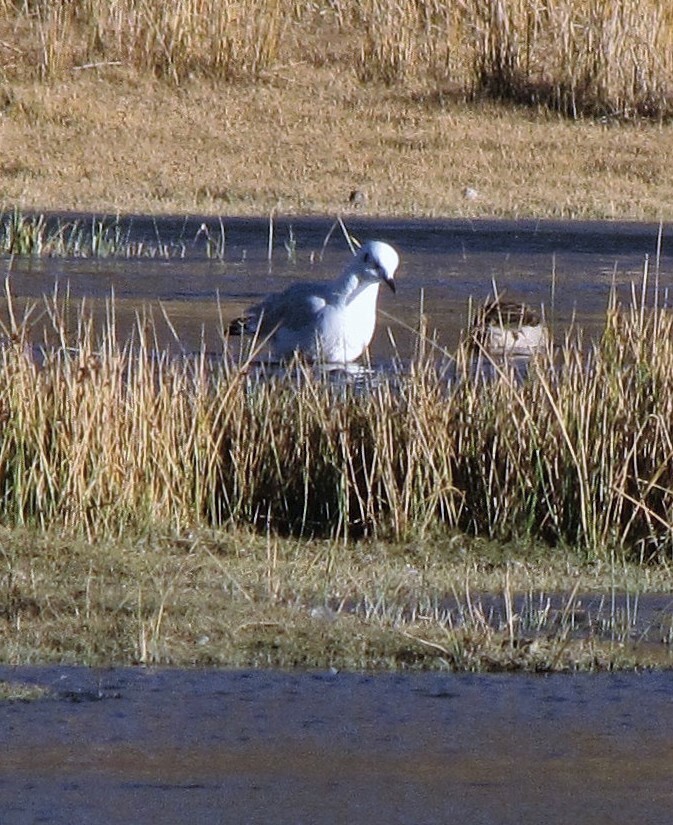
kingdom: Animalia
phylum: Chordata
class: Aves
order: Charadriiformes
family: Laridae
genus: Chroicocephalus
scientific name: Chroicocephalus serranus
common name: Andean gull
